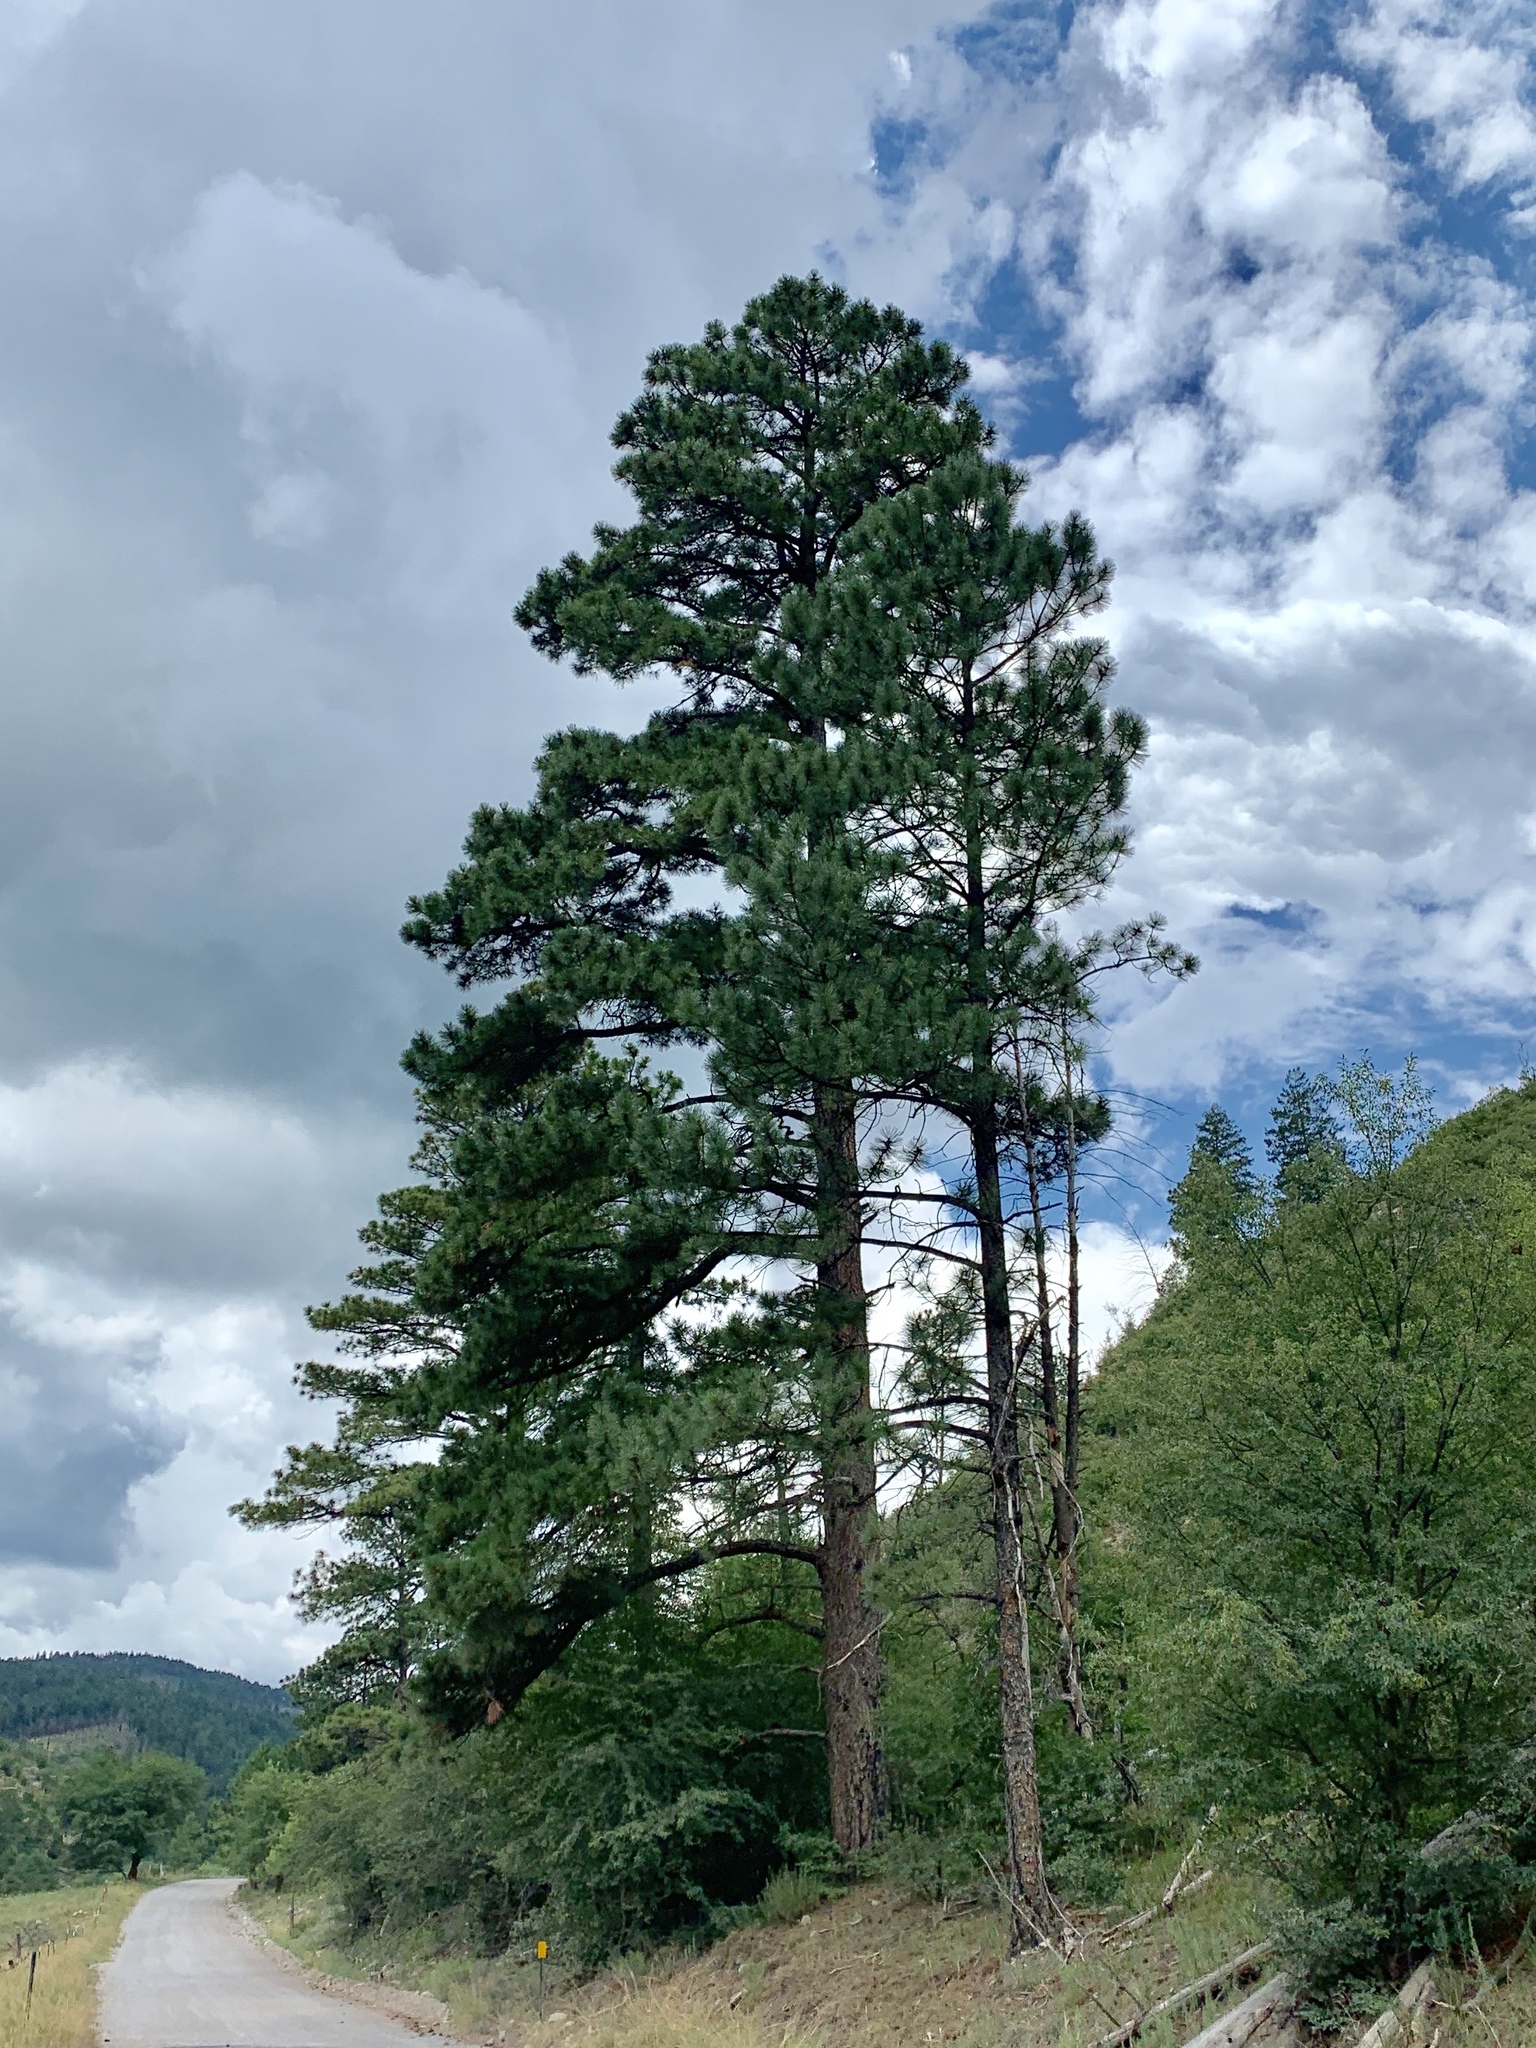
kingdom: Plantae
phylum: Tracheophyta
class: Pinopsida
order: Pinales
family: Pinaceae
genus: Pinus
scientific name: Pinus ponderosa
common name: Western yellow-pine
